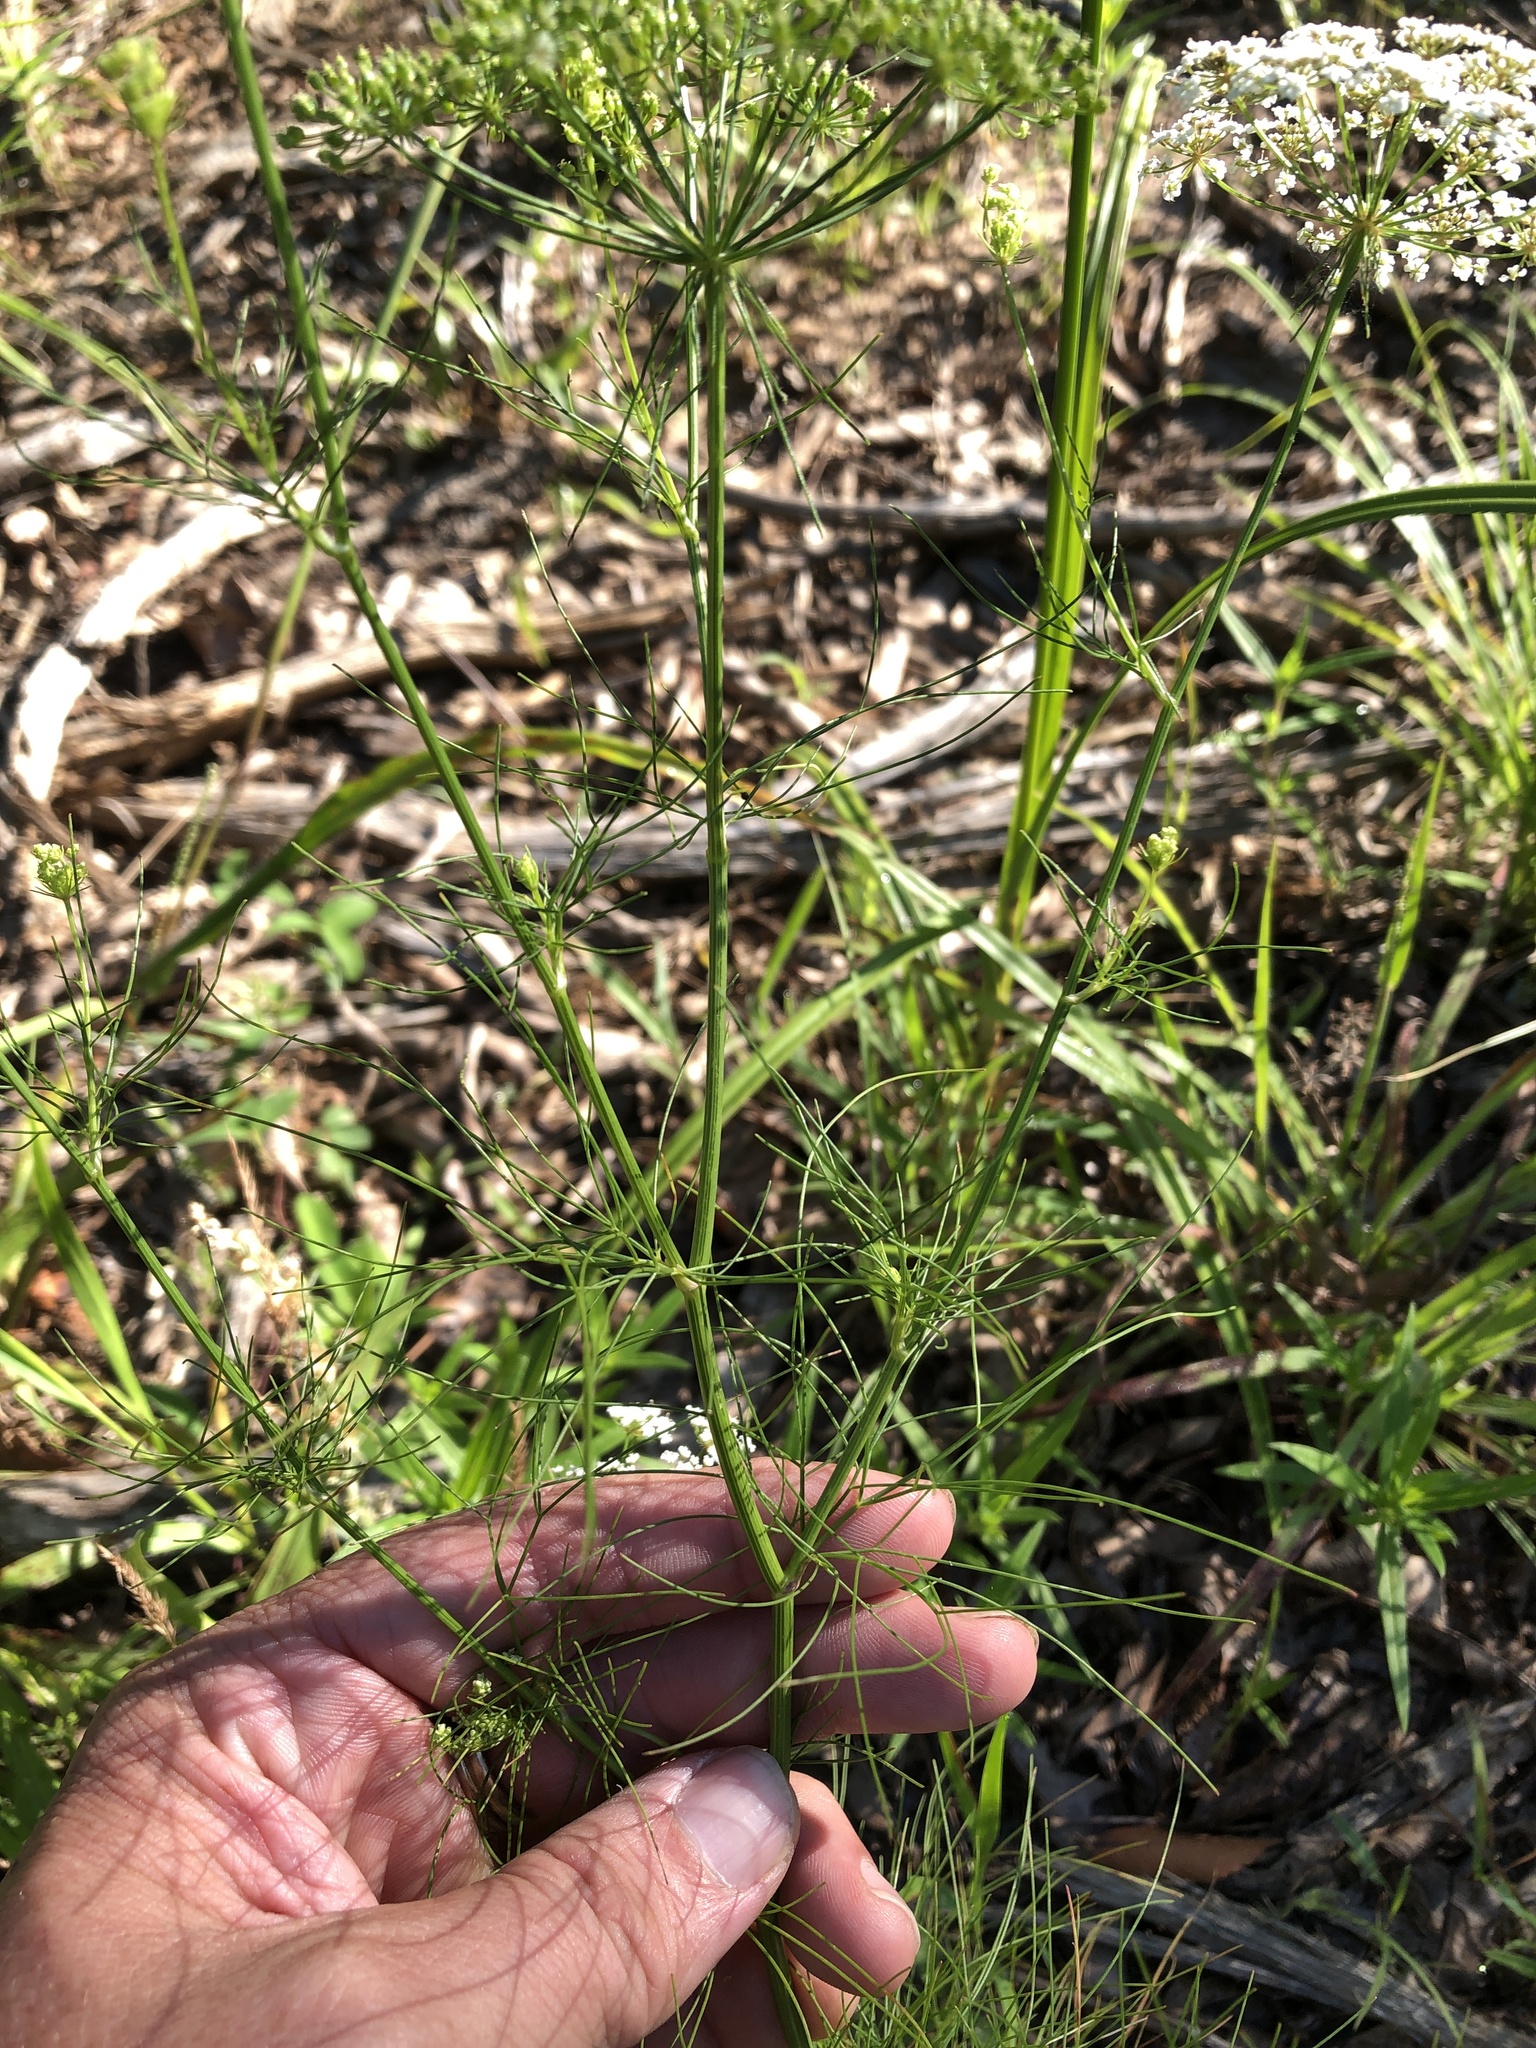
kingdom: Plantae
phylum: Tracheophyta
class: Magnoliopsida
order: Apiales
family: Apiaceae
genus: Ptilimnium
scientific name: Ptilimnium costatum
